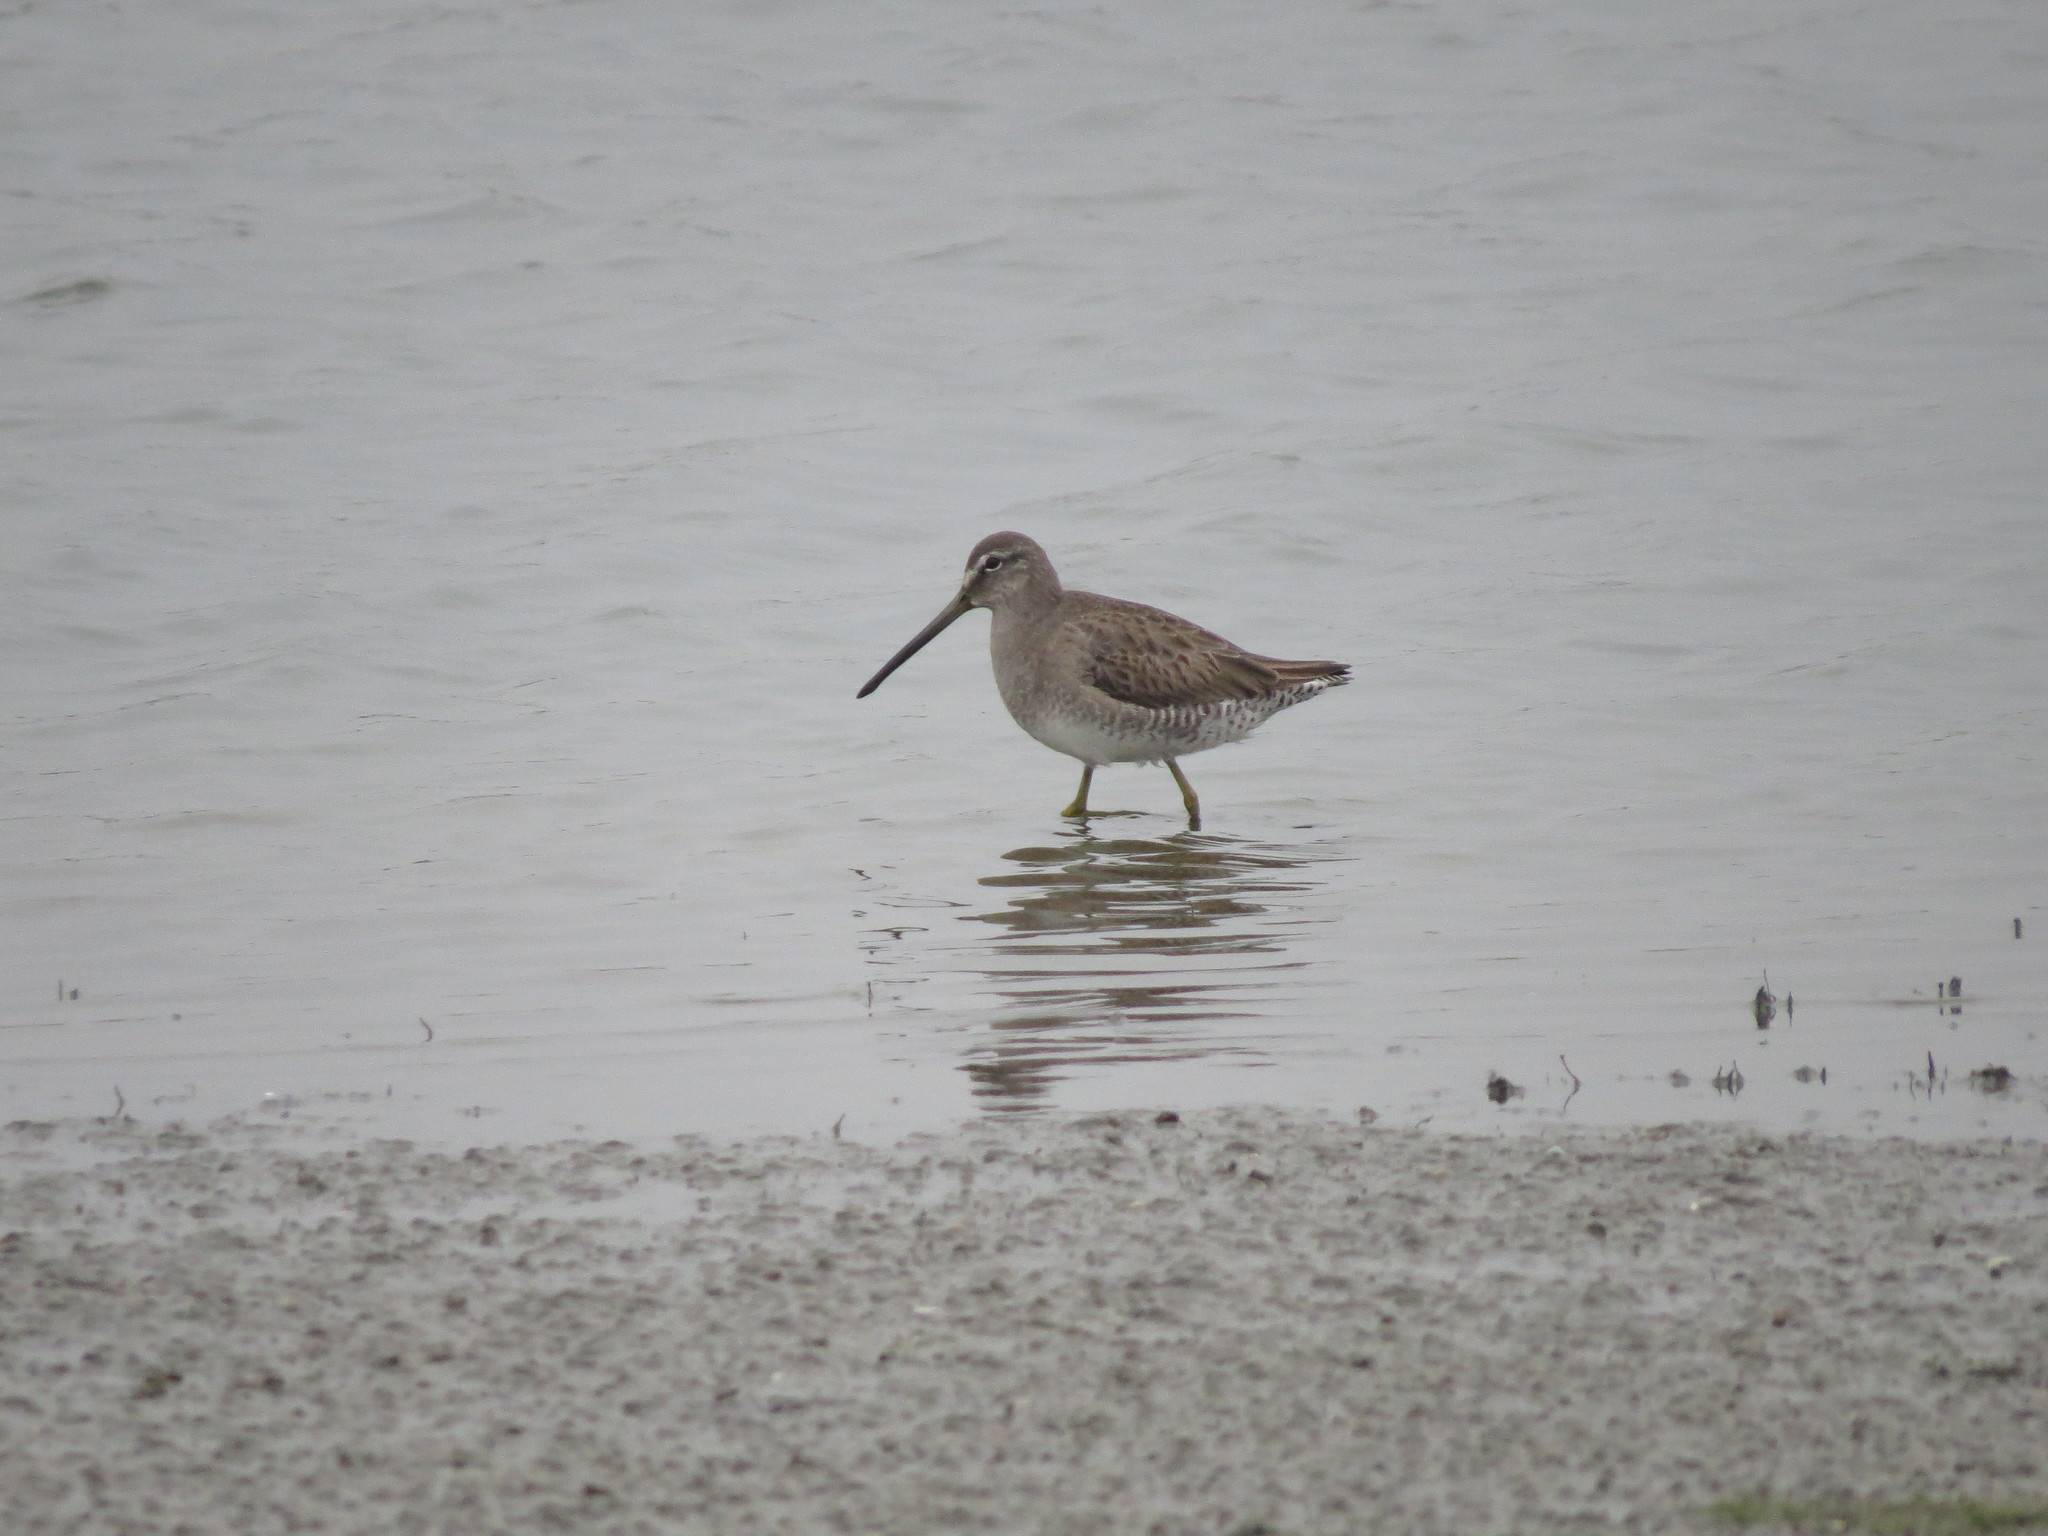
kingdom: Animalia
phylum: Chordata
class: Aves
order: Charadriiformes
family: Scolopacidae
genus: Limnodromus
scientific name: Limnodromus scolopaceus
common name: Long-billed dowitcher
